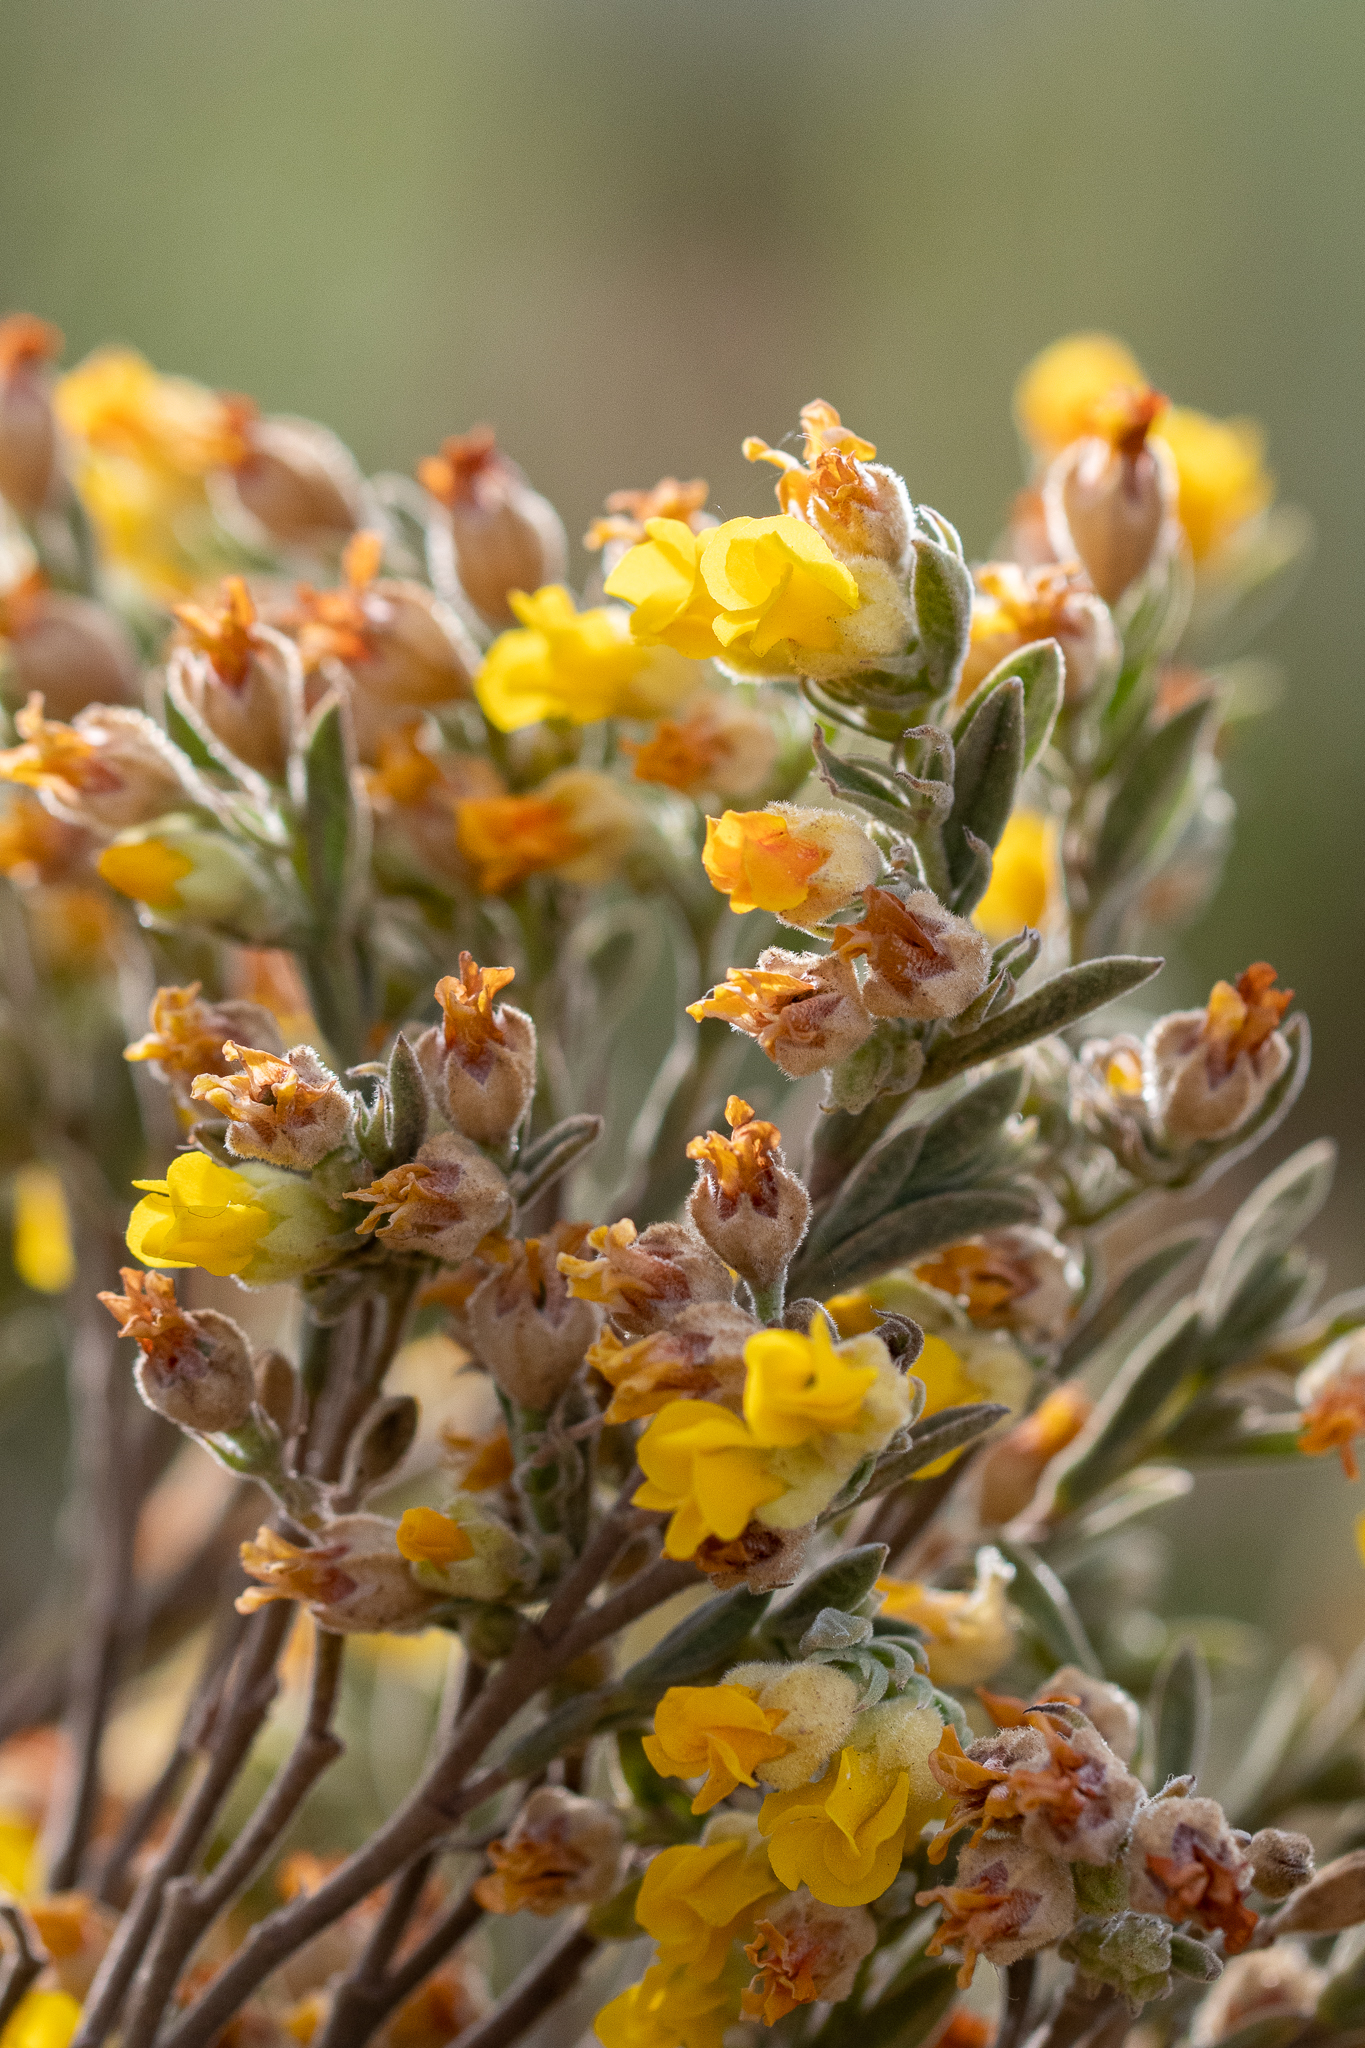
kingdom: Plantae
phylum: Tracheophyta
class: Magnoliopsida
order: Malvales
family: Malvaceae
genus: Hermannia
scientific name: Hermannia velutina
